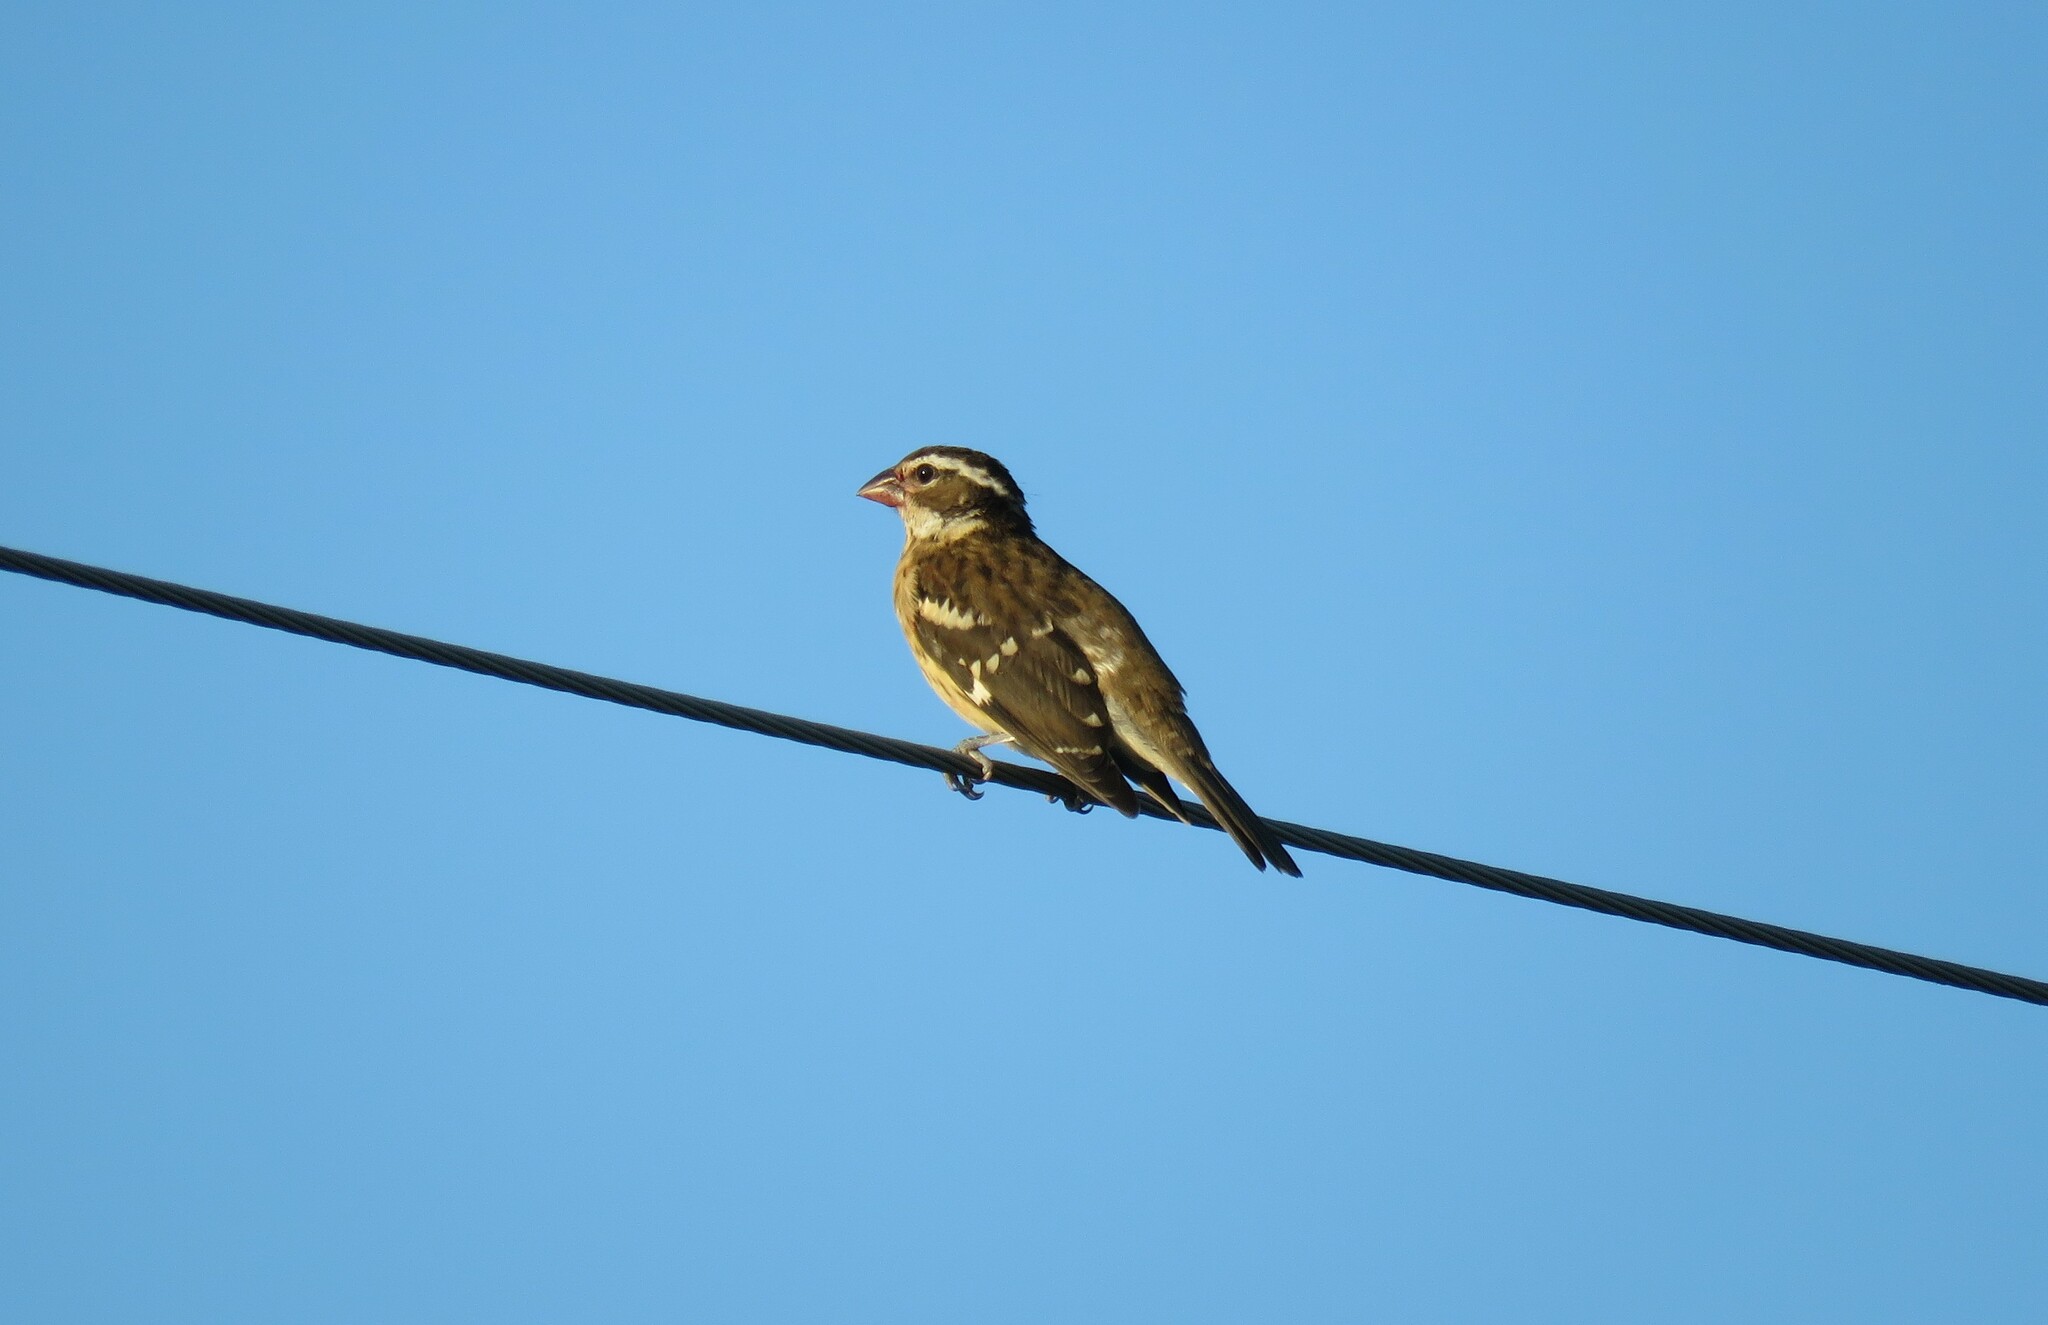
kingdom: Animalia
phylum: Chordata
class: Aves
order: Passeriformes
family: Cardinalidae
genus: Pheucticus
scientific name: Pheucticus ludovicianus
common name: Rose-breasted grosbeak
